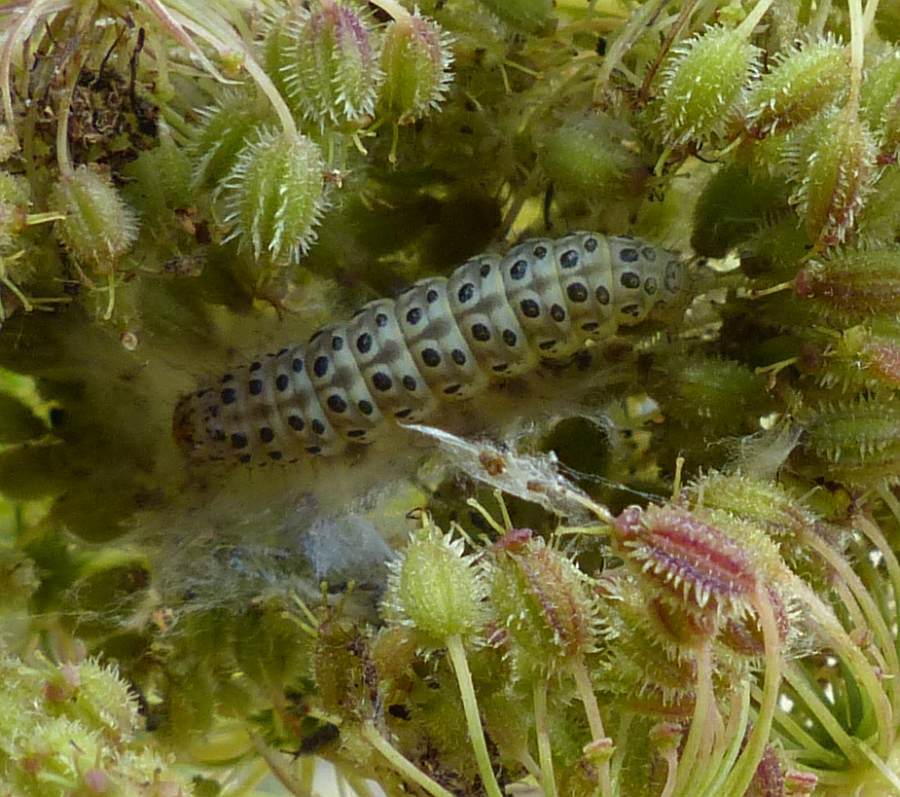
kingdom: Animalia
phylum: Arthropoda
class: Insecta
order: Lepidoptera
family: Crambidae
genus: Sitochroa
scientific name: Sitochroa palealis
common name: Greenish-yellow sitochroa moth
